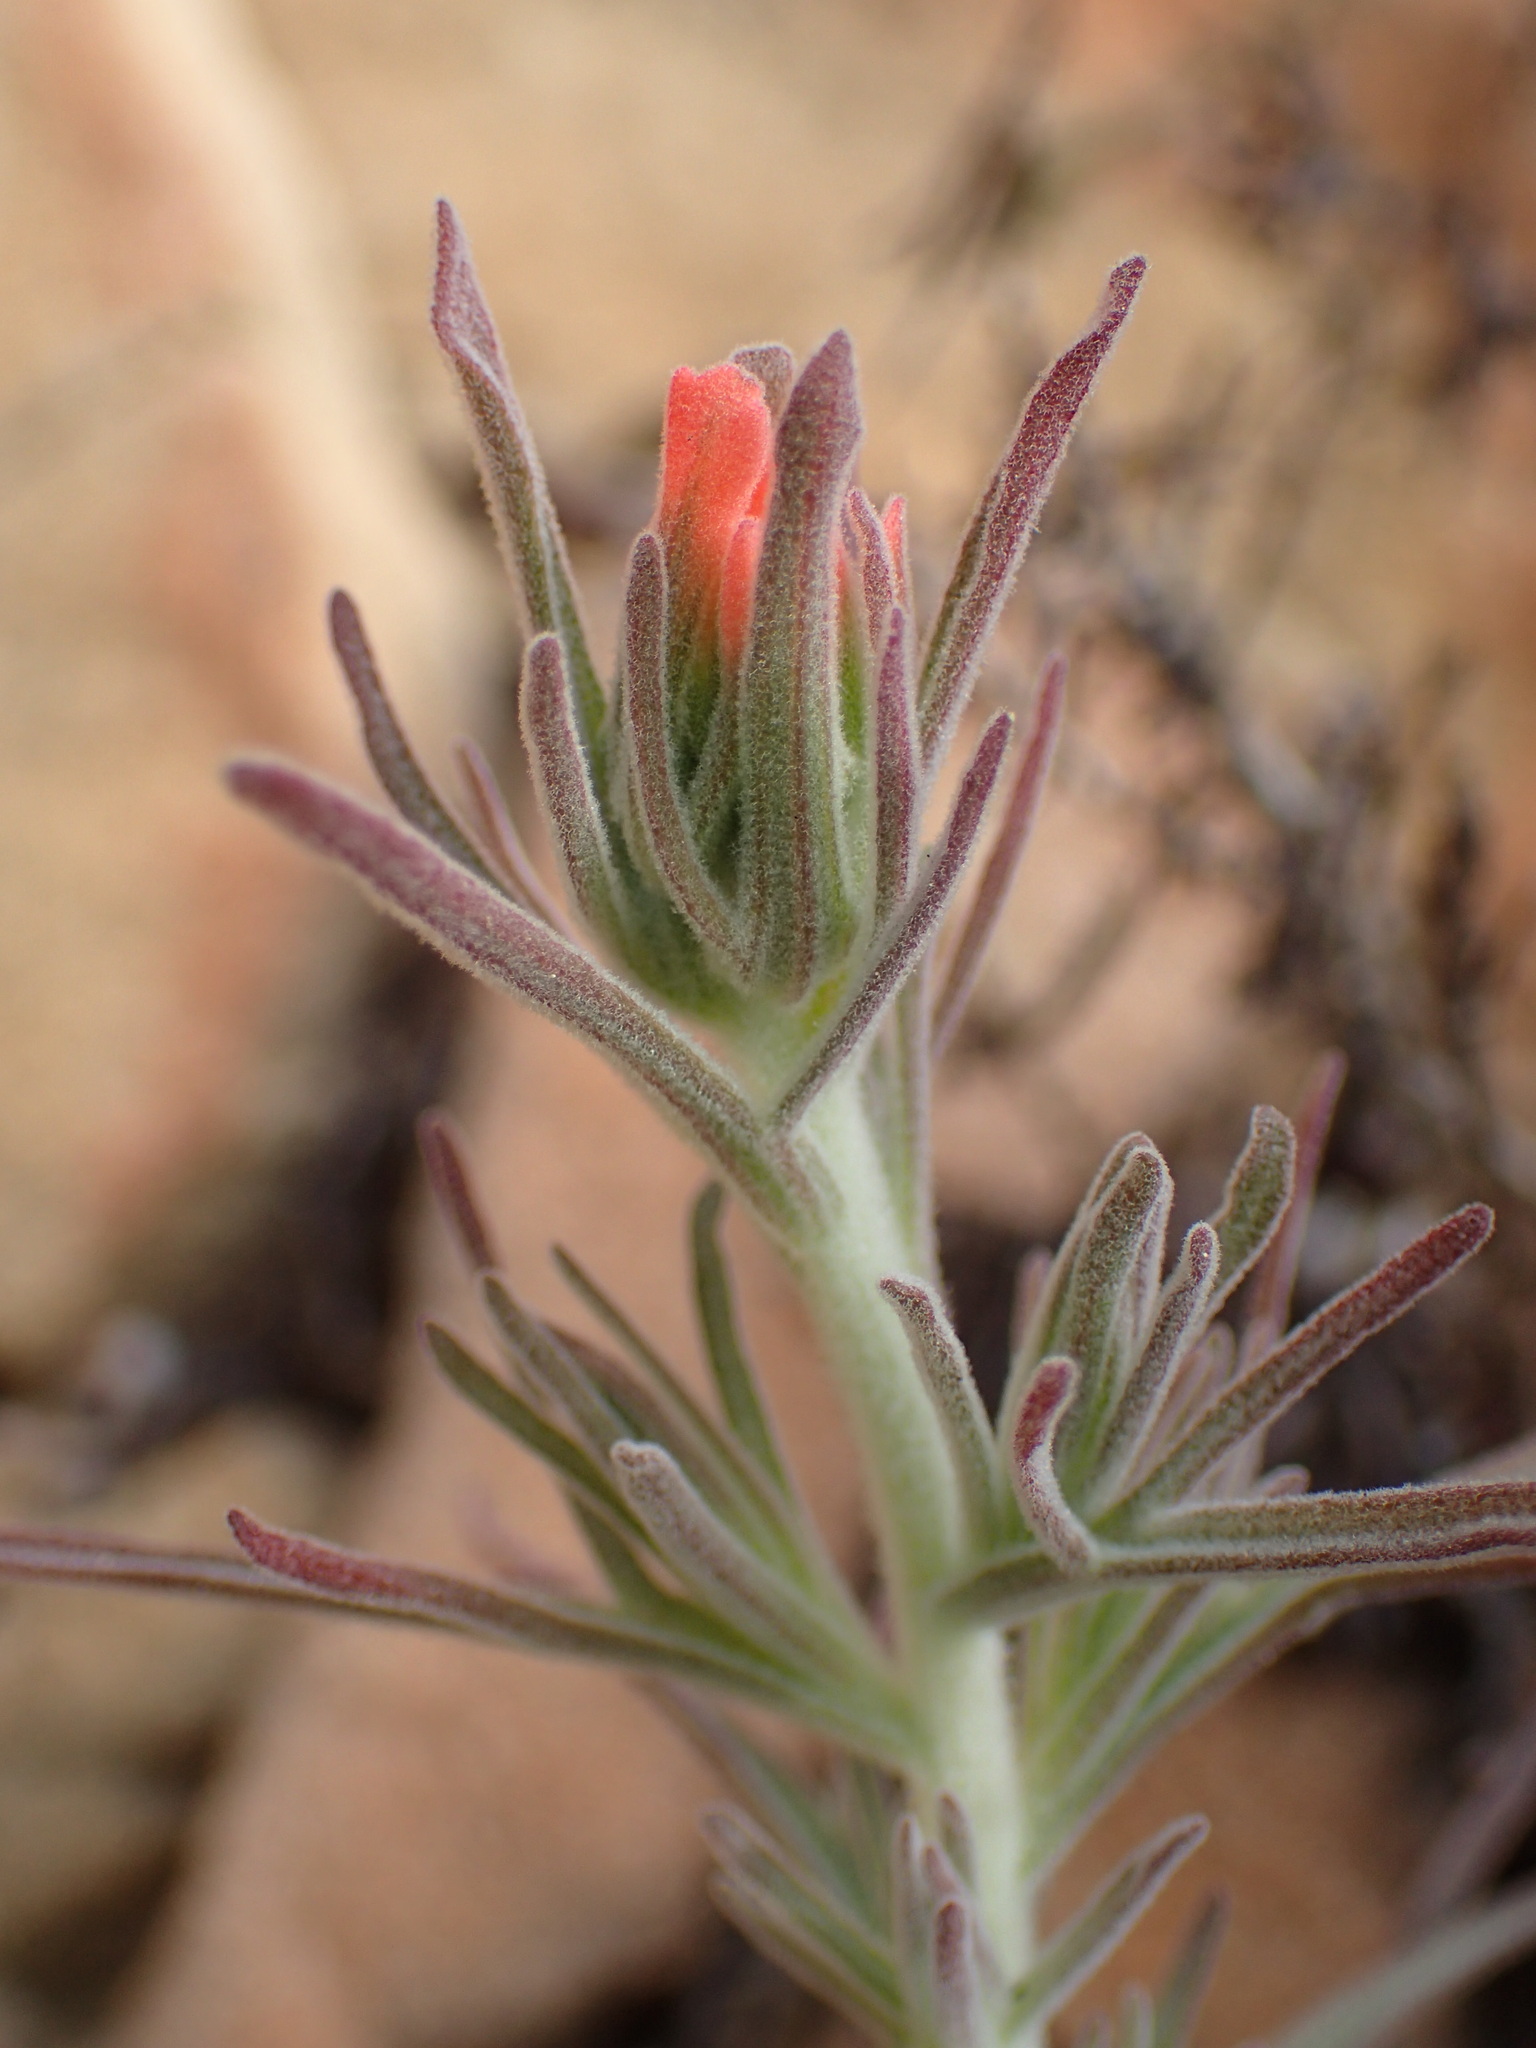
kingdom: Plantae
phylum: Tracheophyta
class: Magnoliopsida
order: Lamiales
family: Orobanchaceae
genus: Castilleja
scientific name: Castilleja foliolosa
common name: Woolly indian paintbrush
